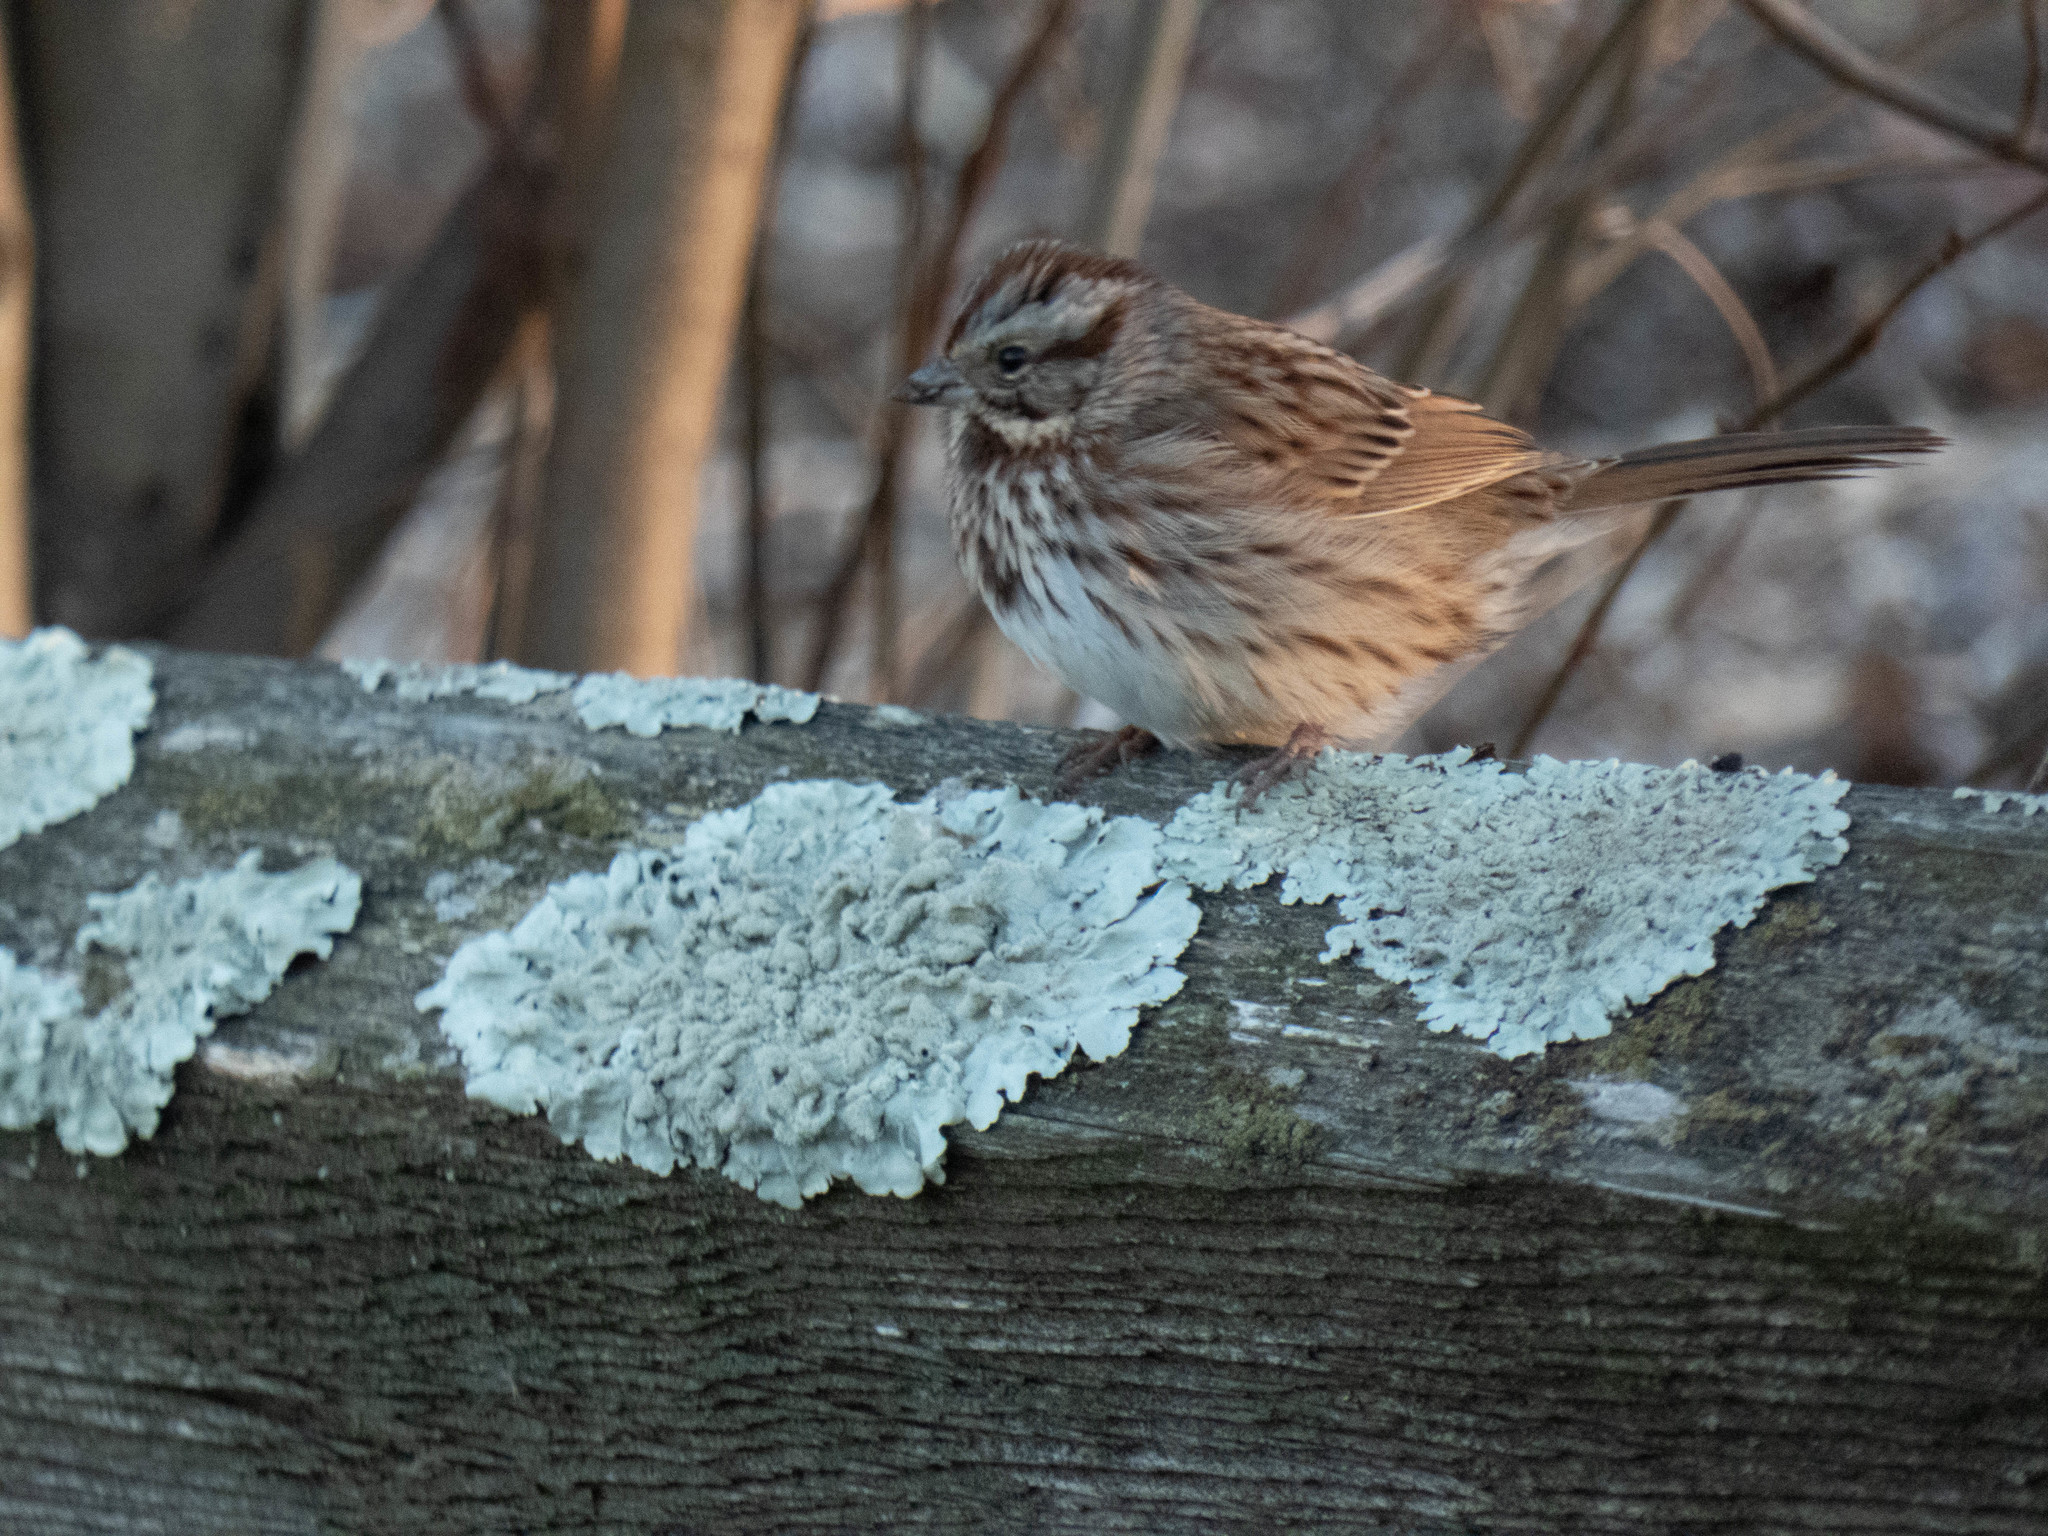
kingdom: Animalia
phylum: Chordata
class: Aves
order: Passeriformes
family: Passerellidae
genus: Melospiza
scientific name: Melospiza melodia
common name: Song sparrow
